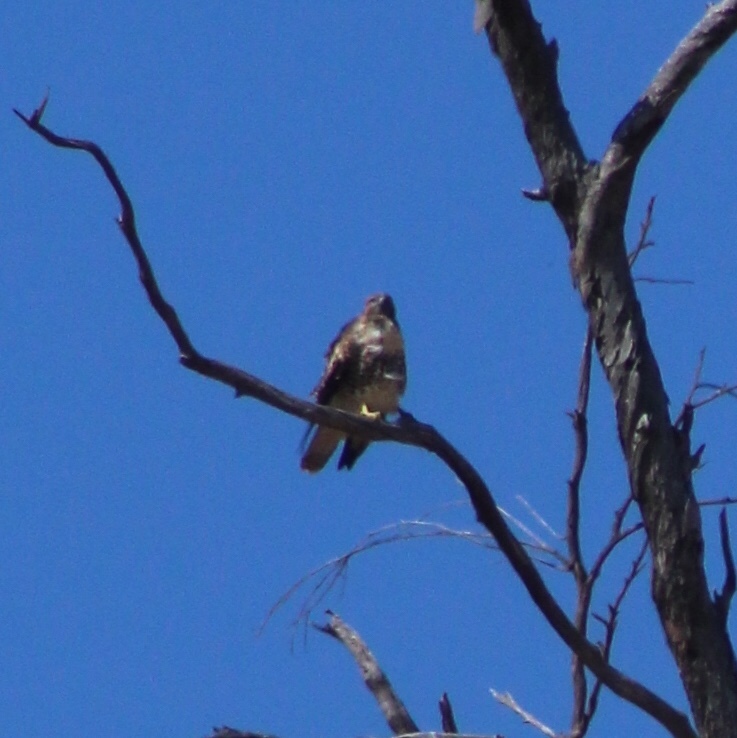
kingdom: Animalia
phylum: Chordata
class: Aves
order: Accipitriformes
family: Accipitridae
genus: Buteo
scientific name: Buteo jamaicensis
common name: Red-tailed hawk
